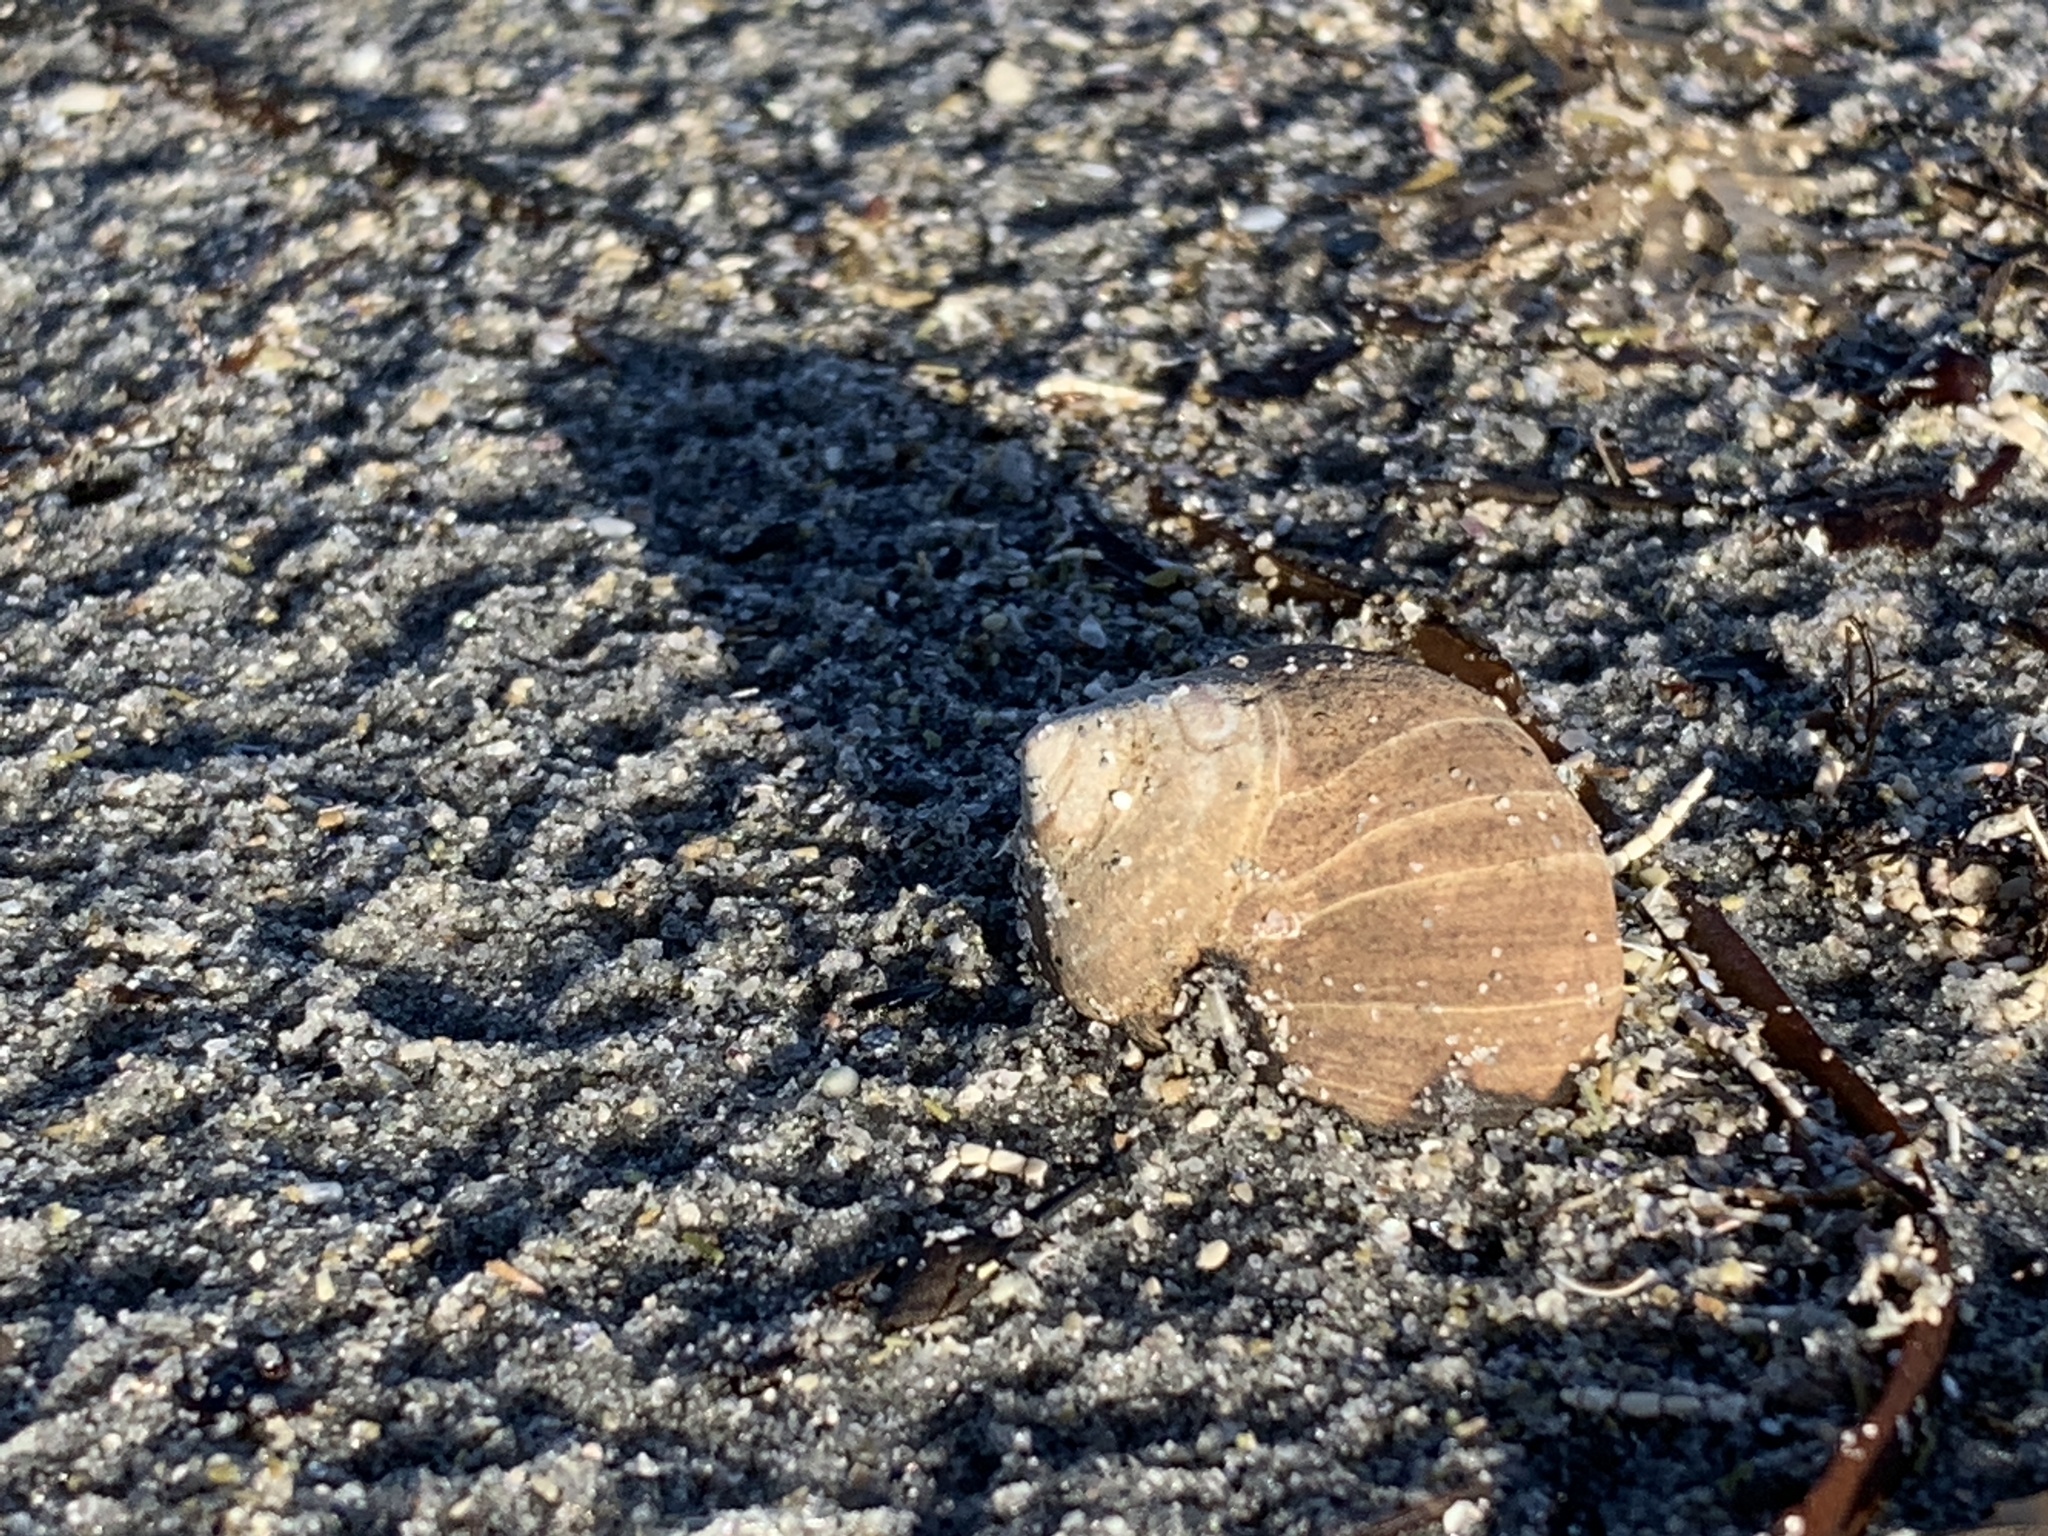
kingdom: Animalia
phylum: Mollusca
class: Gastropoda
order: Littorinimorpha
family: Littorinidae
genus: Littorina
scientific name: Littorina littorea
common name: Common periwinkle
